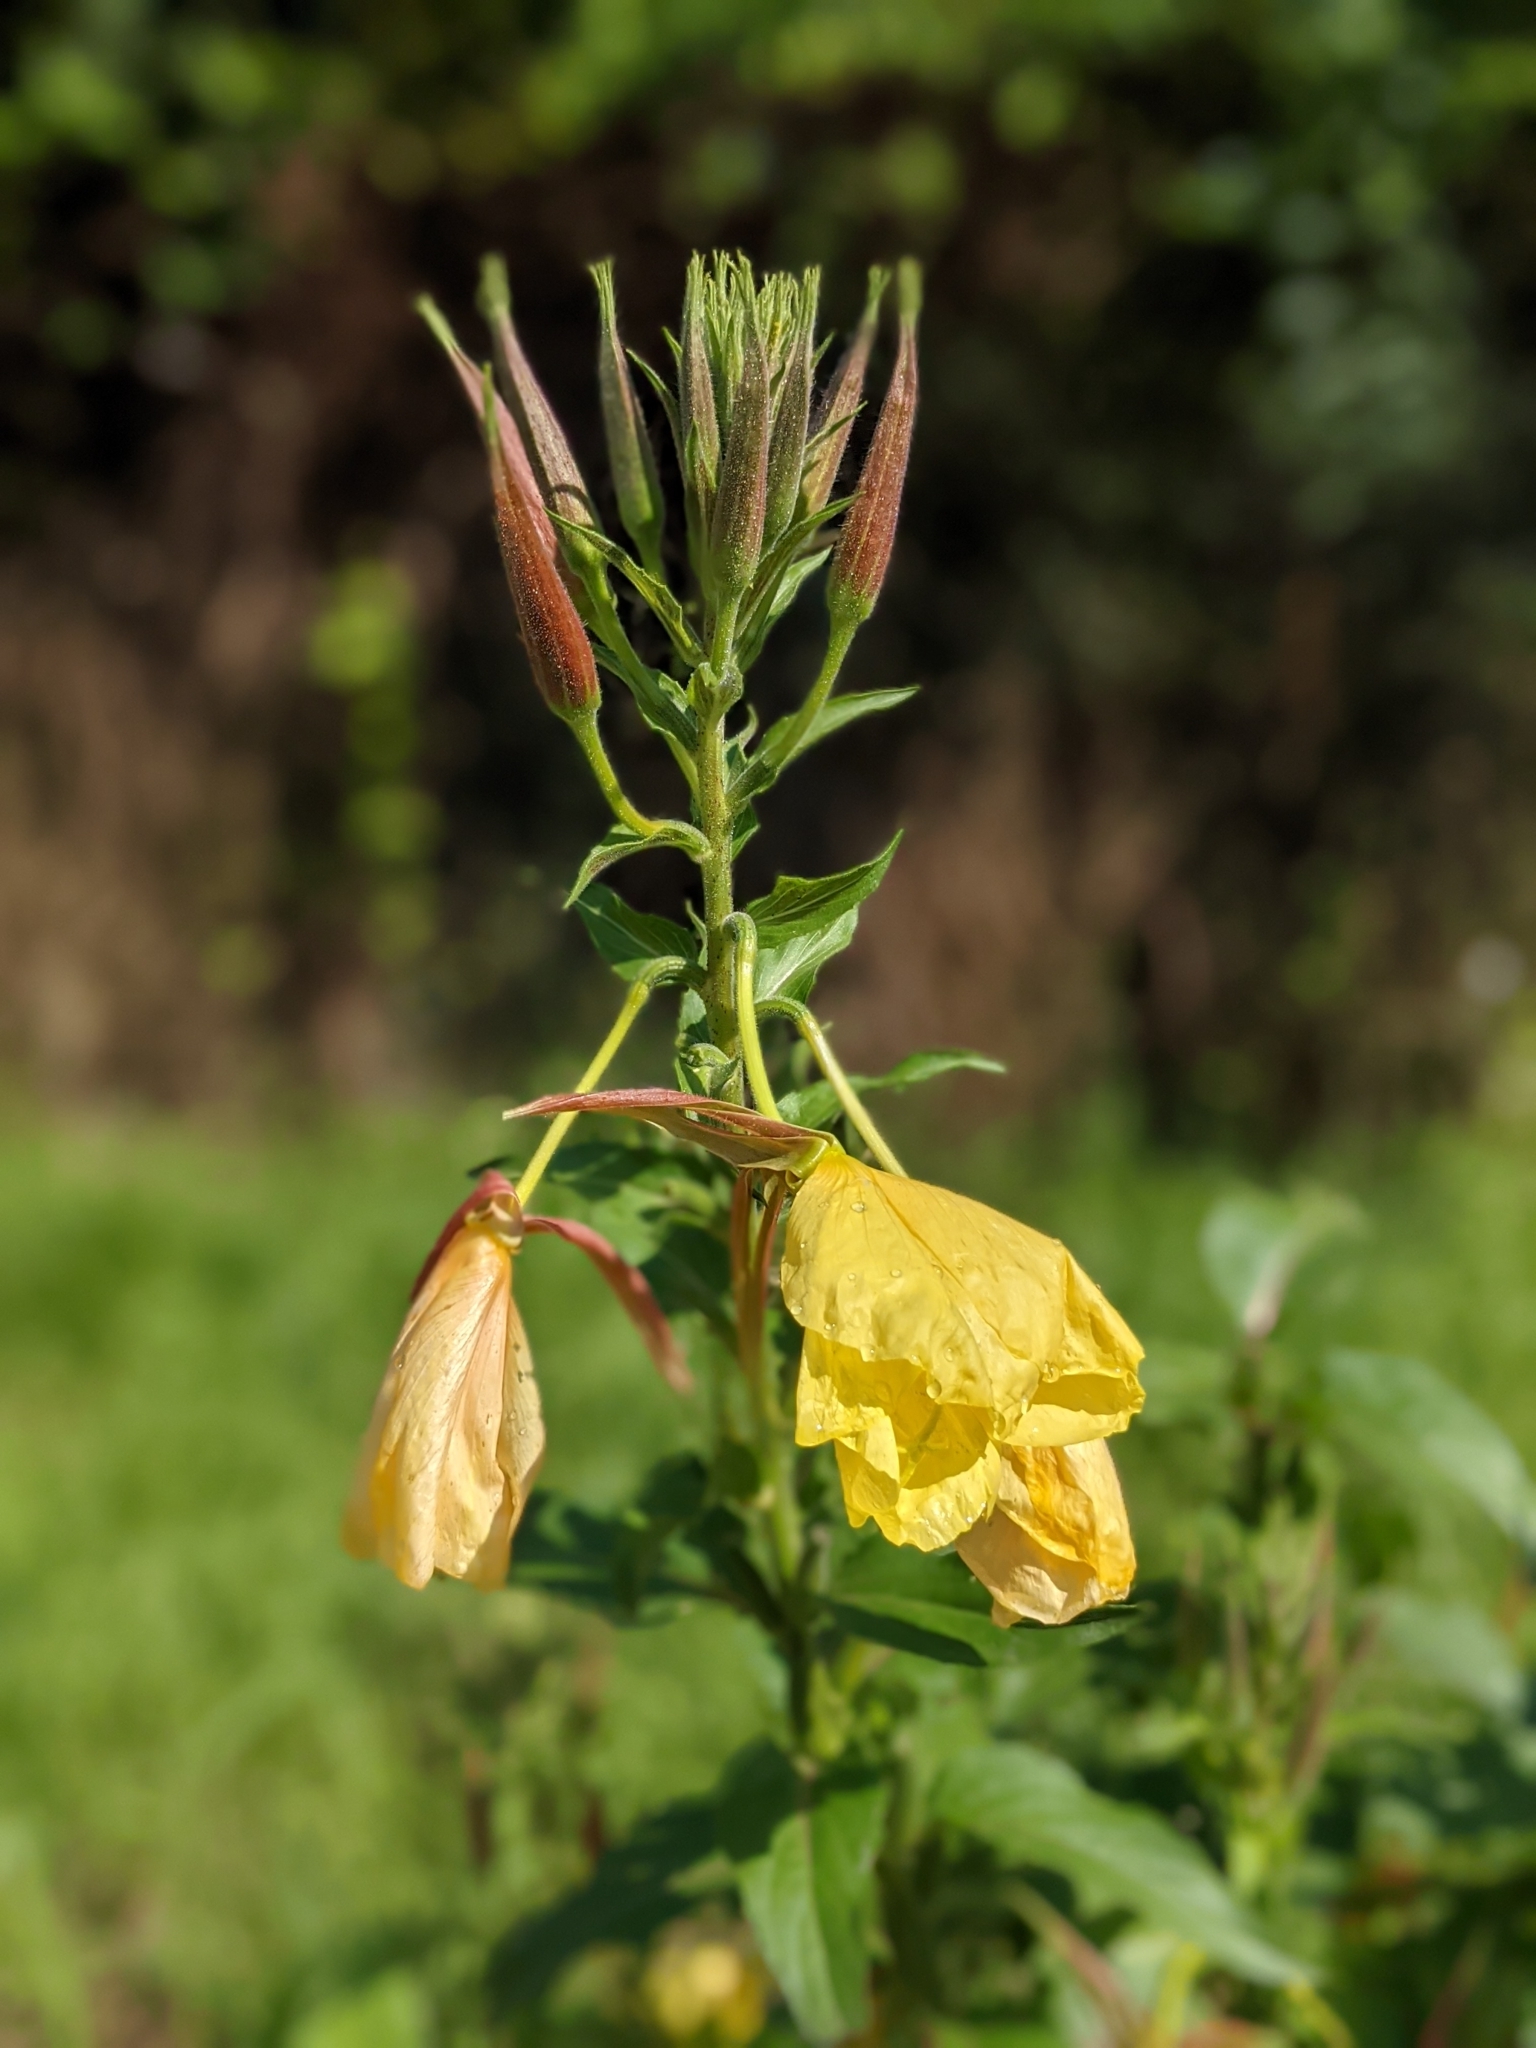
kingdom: Plantae
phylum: Tracheophyta
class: Magnoliopsida
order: Myrtales
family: Onagraceae
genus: Oenothera
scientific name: Oenothera glazioviana
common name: Large-flowered evening-primrose
